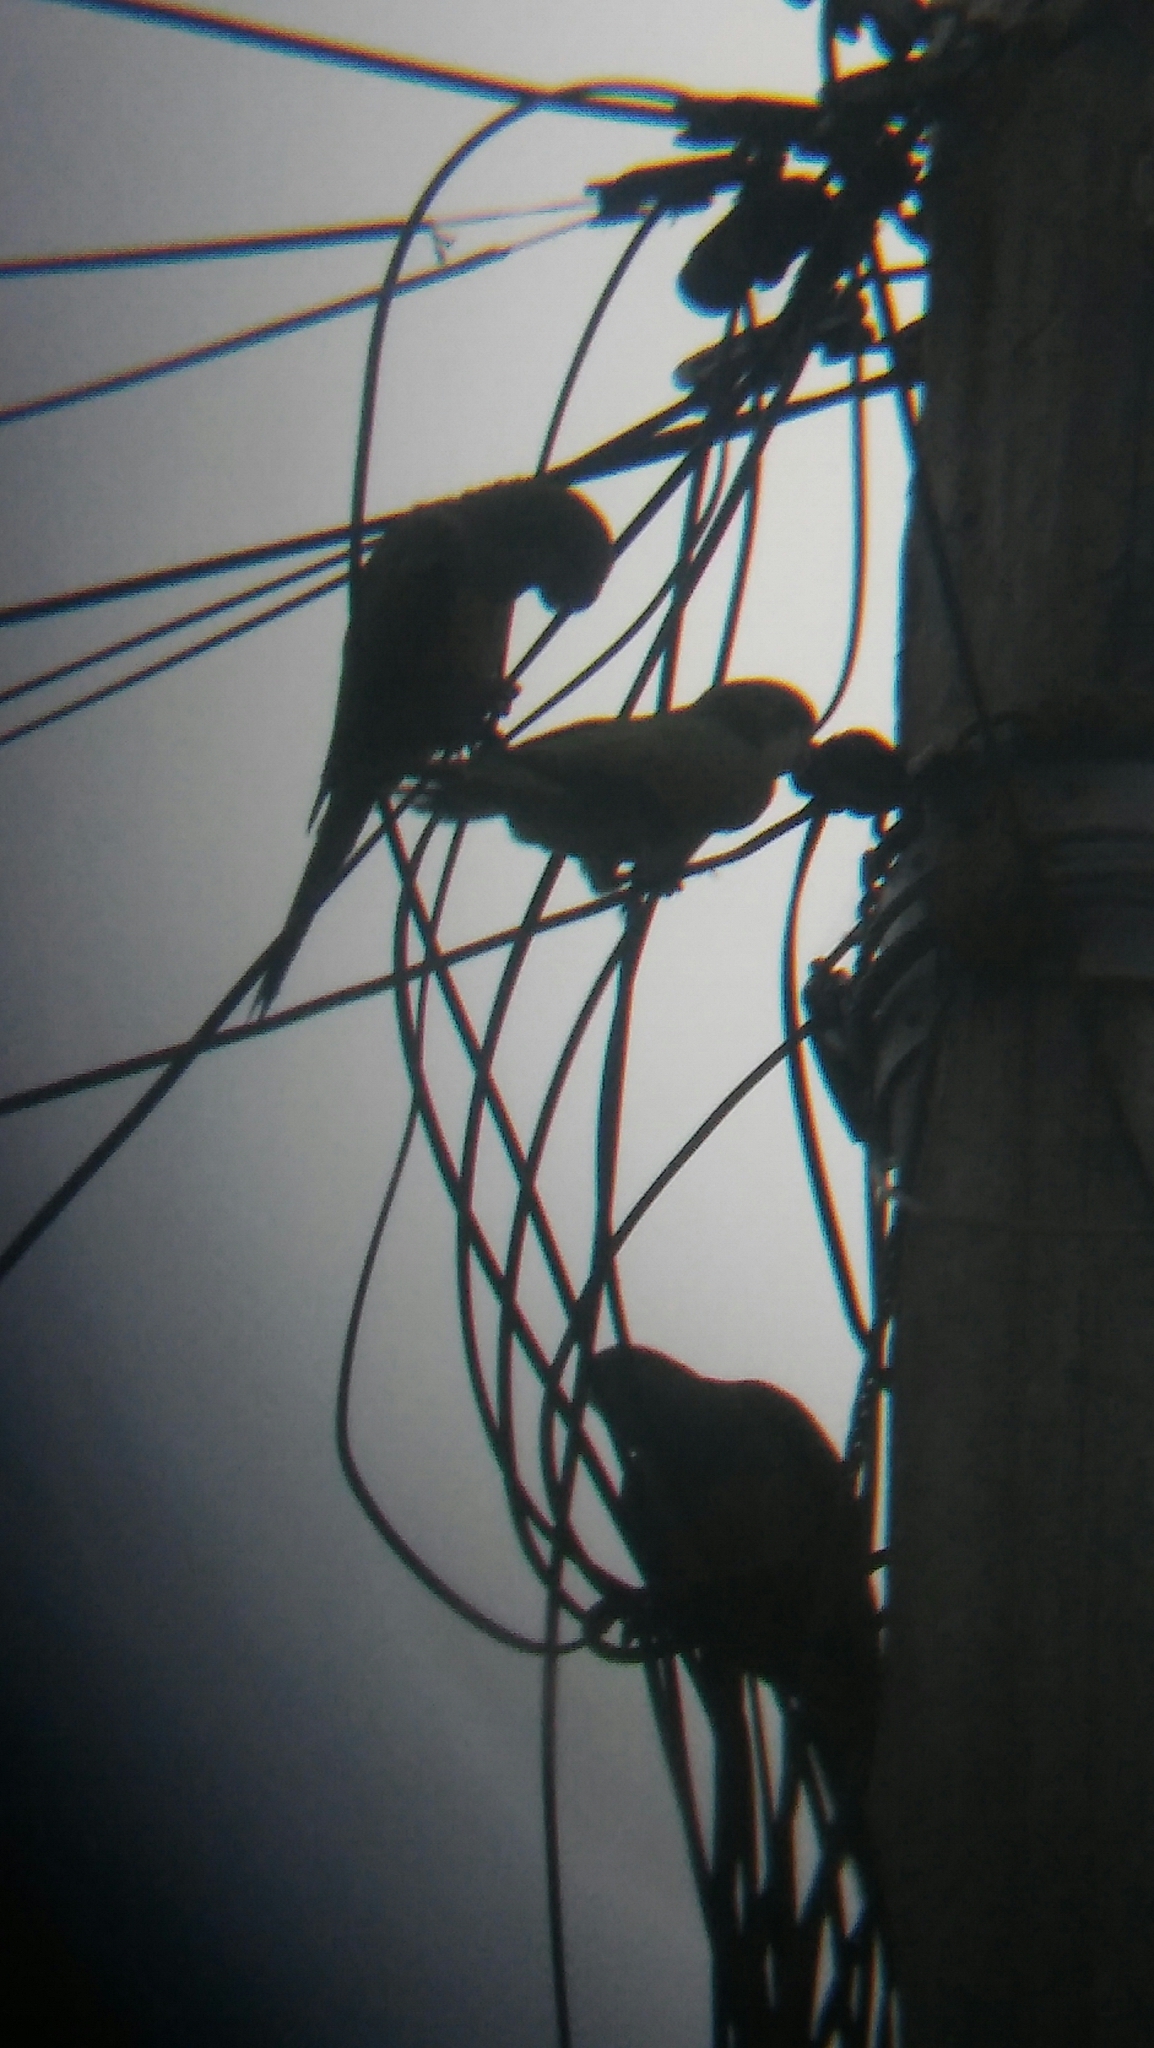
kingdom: Animalia
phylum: Chordata
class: Aves
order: Psittaciformes
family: Psittacidae
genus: Myiopsitta
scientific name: Myiopsitta monachus
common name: Monk parakeet
